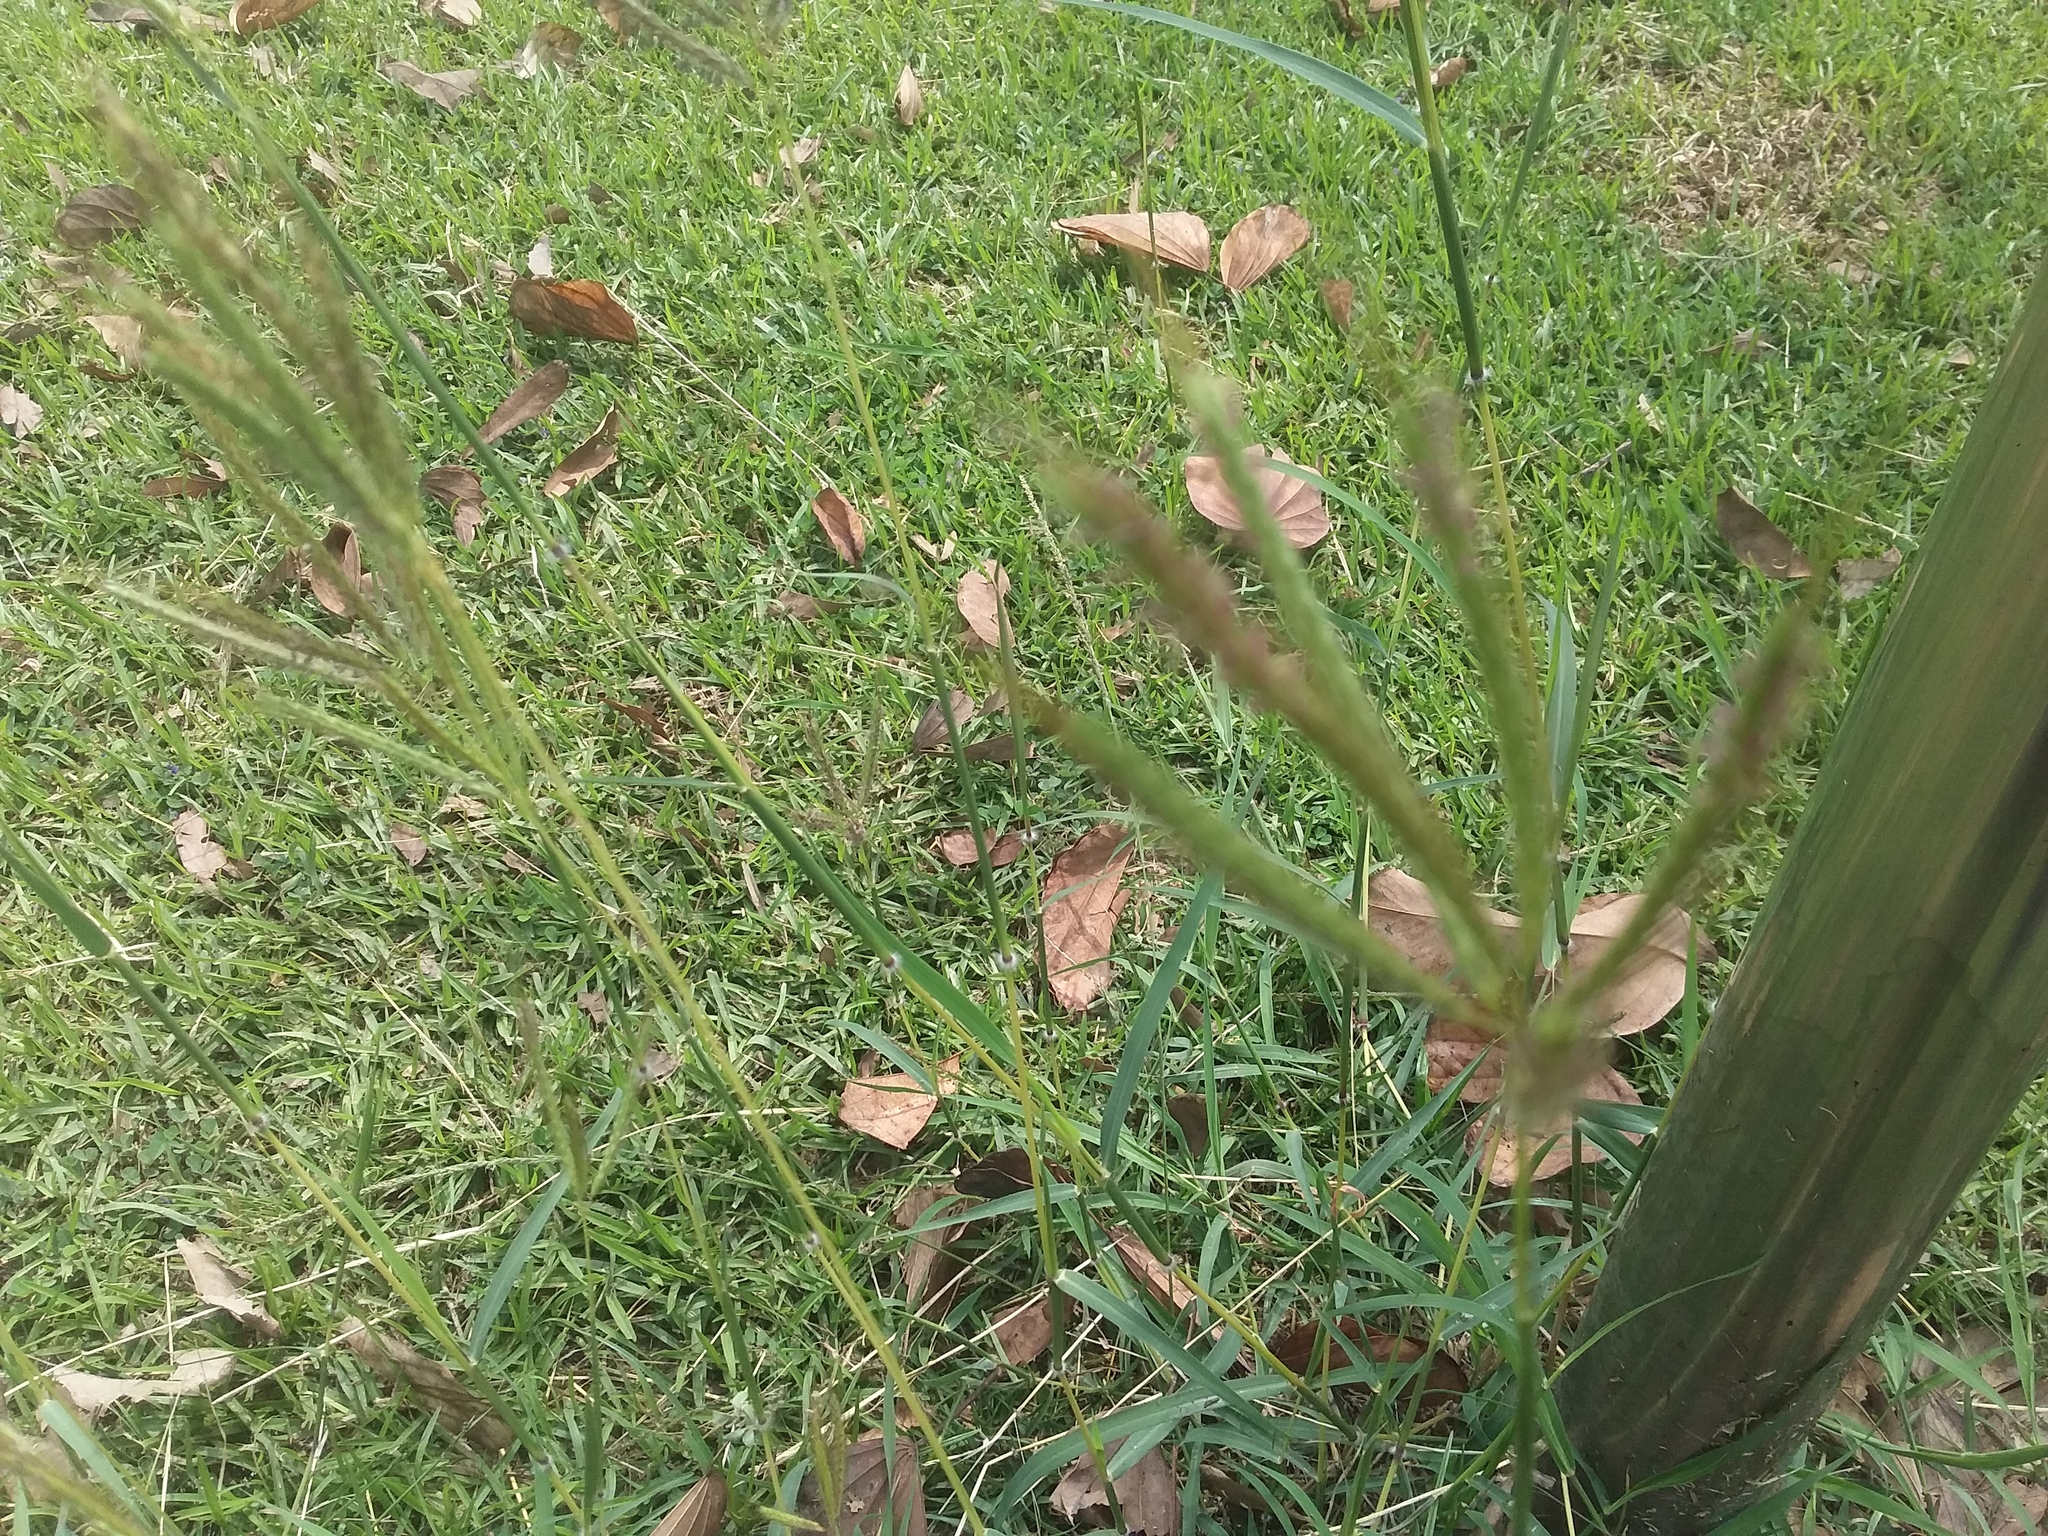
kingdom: Plantae
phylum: Tracheophyta
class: Liliopsida
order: Poales
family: Poaceae
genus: Dichanthium
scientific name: Dichanthium annulatum
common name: Kleberg's bluestem
